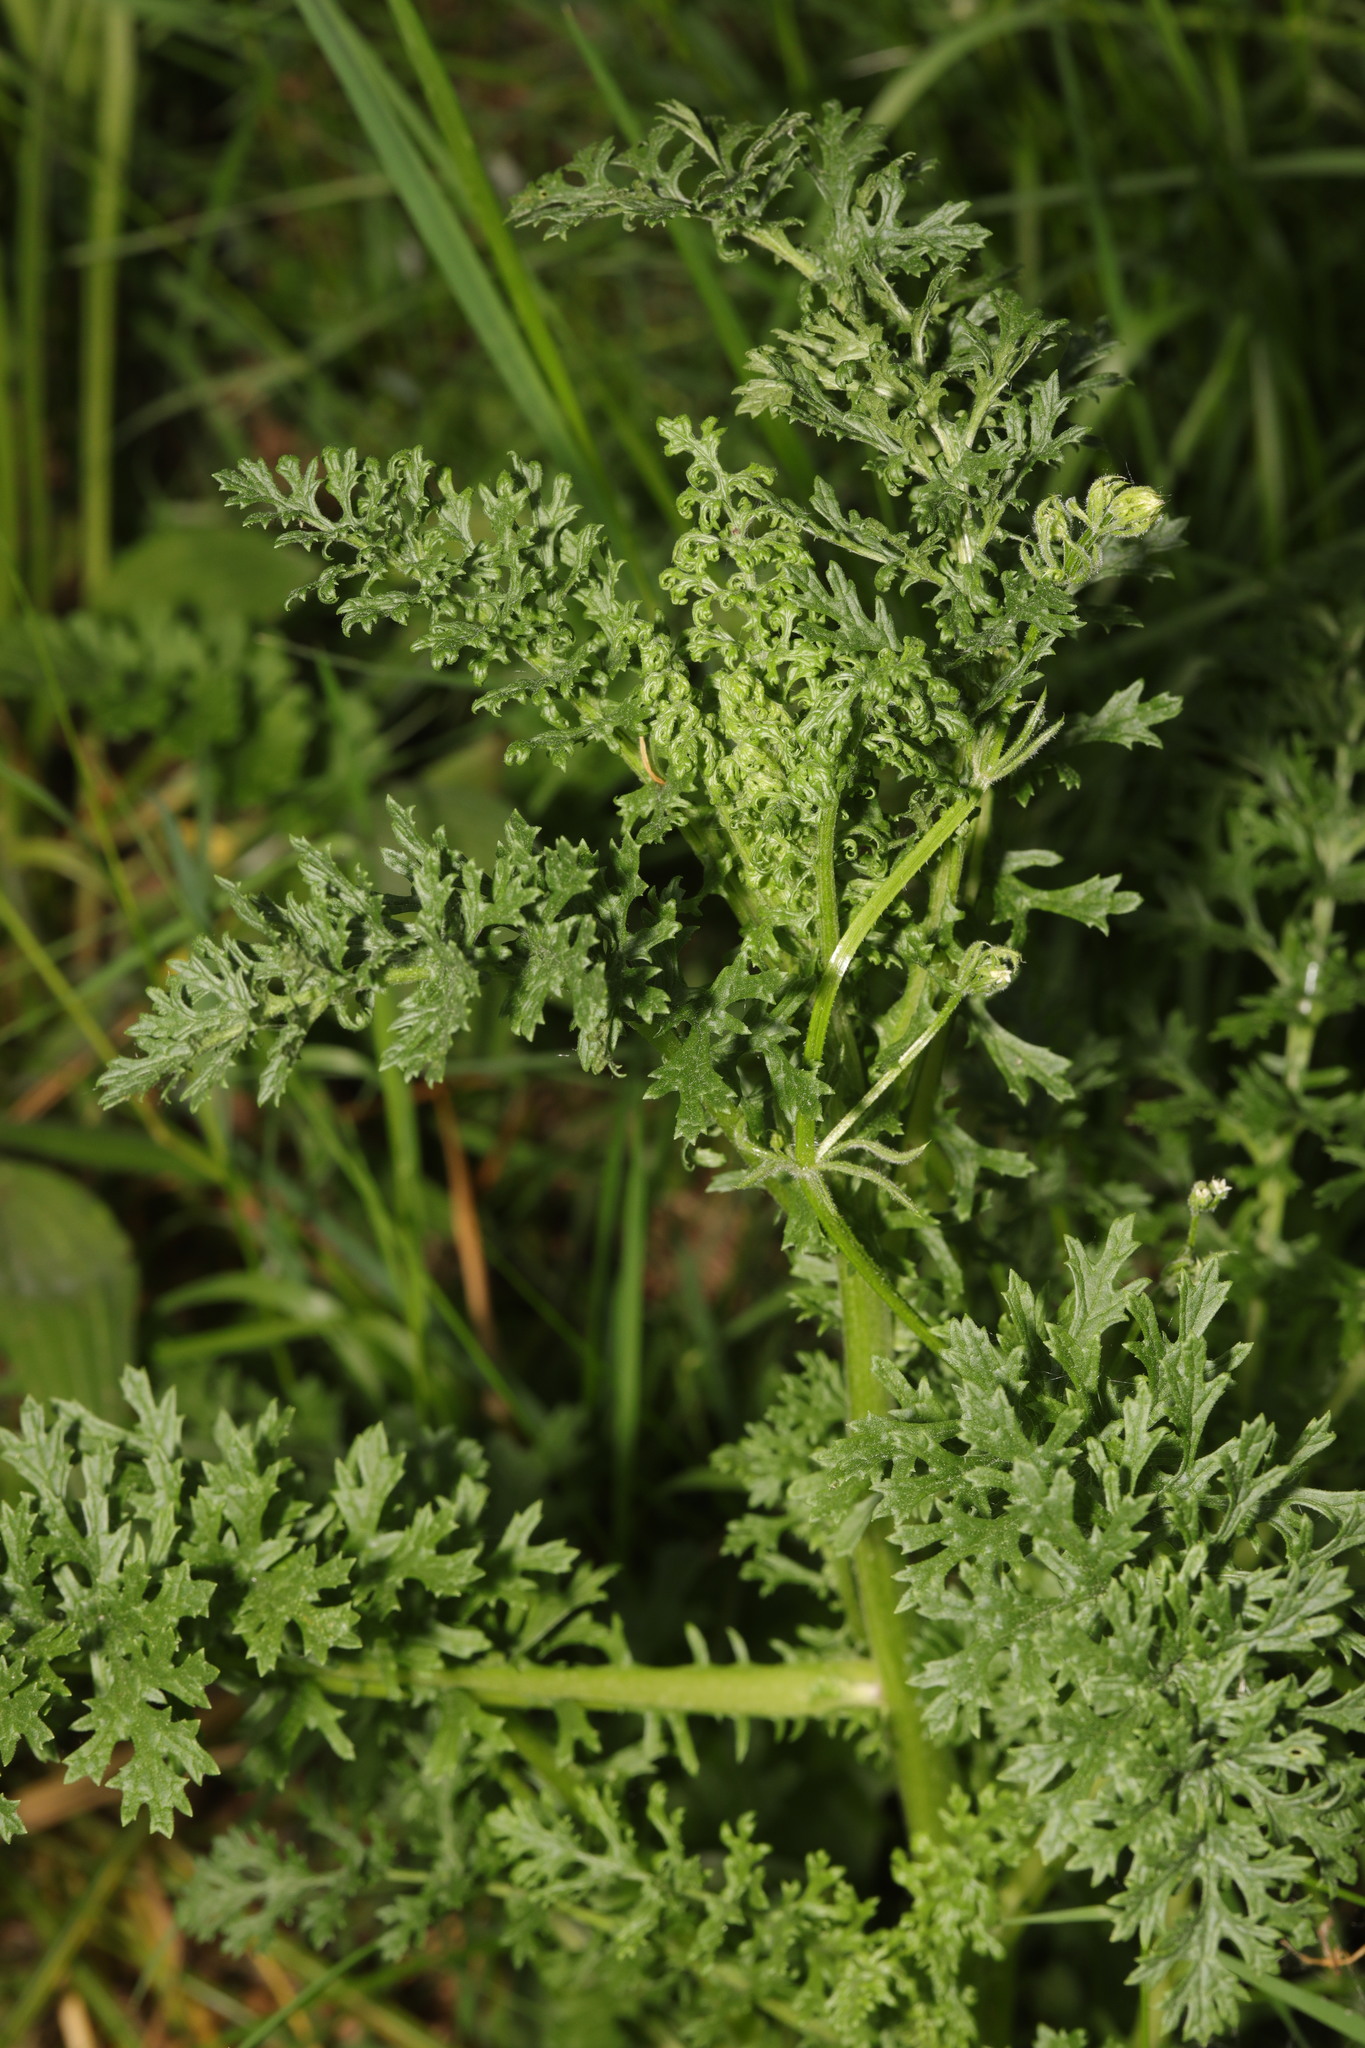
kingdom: Plantae
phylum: Tracheophyta
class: Magnoliopsida
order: Asterales
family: Asteraceae
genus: Jacobaea
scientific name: Jacobaea vulgaris
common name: Stinking willie
